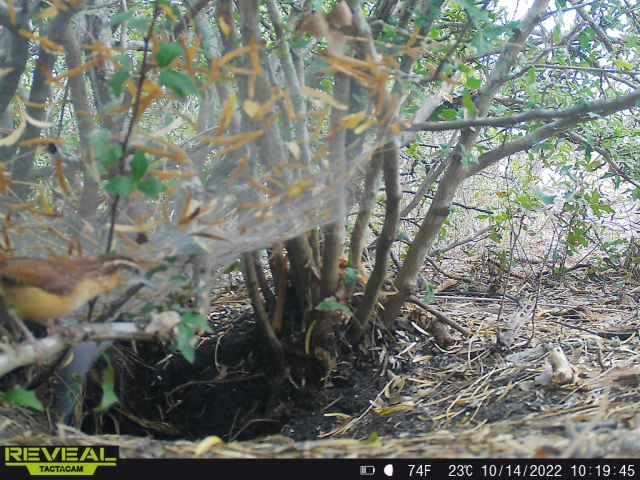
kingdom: Animalia
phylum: Chordata
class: Aves
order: Passeriformes
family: Troglodytidae
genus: Thryothorus
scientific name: Thryothorus ludovicianus
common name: Carolina wren
